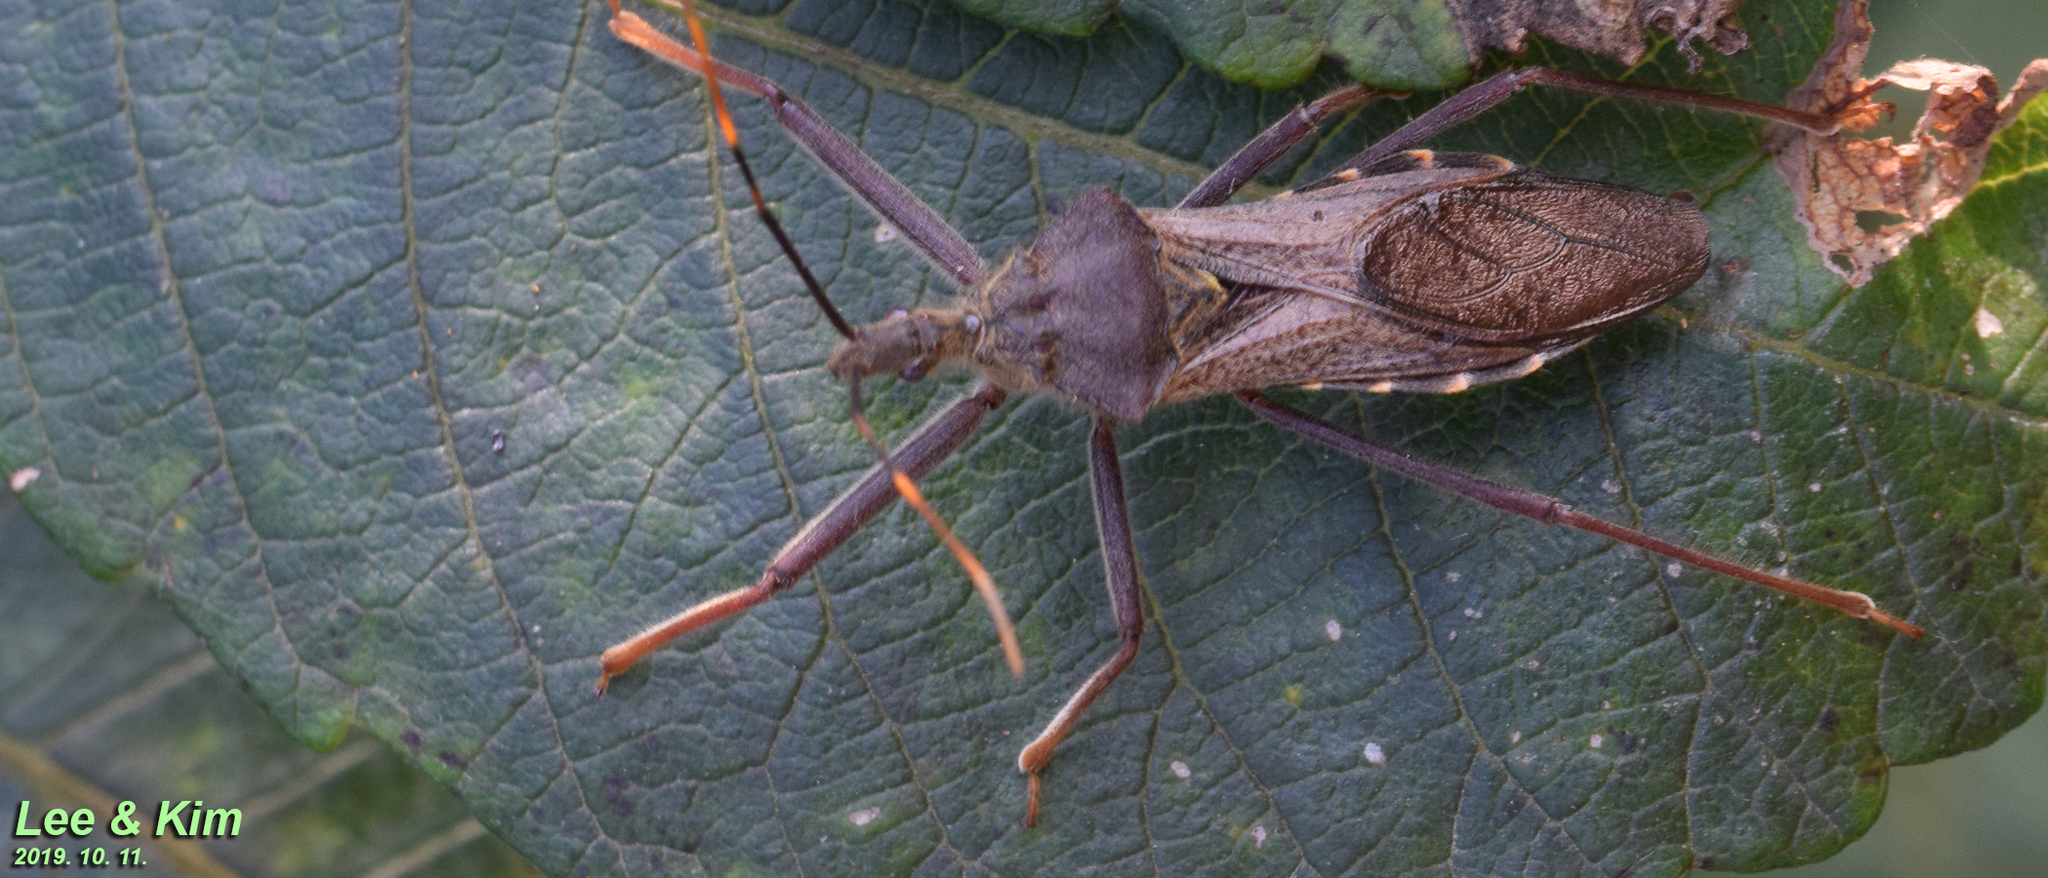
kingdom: Animalia
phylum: Arthropoda
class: Insecta
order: Hemiptera
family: Reduviidae
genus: Isyndus
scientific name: Isyndus obscurus
